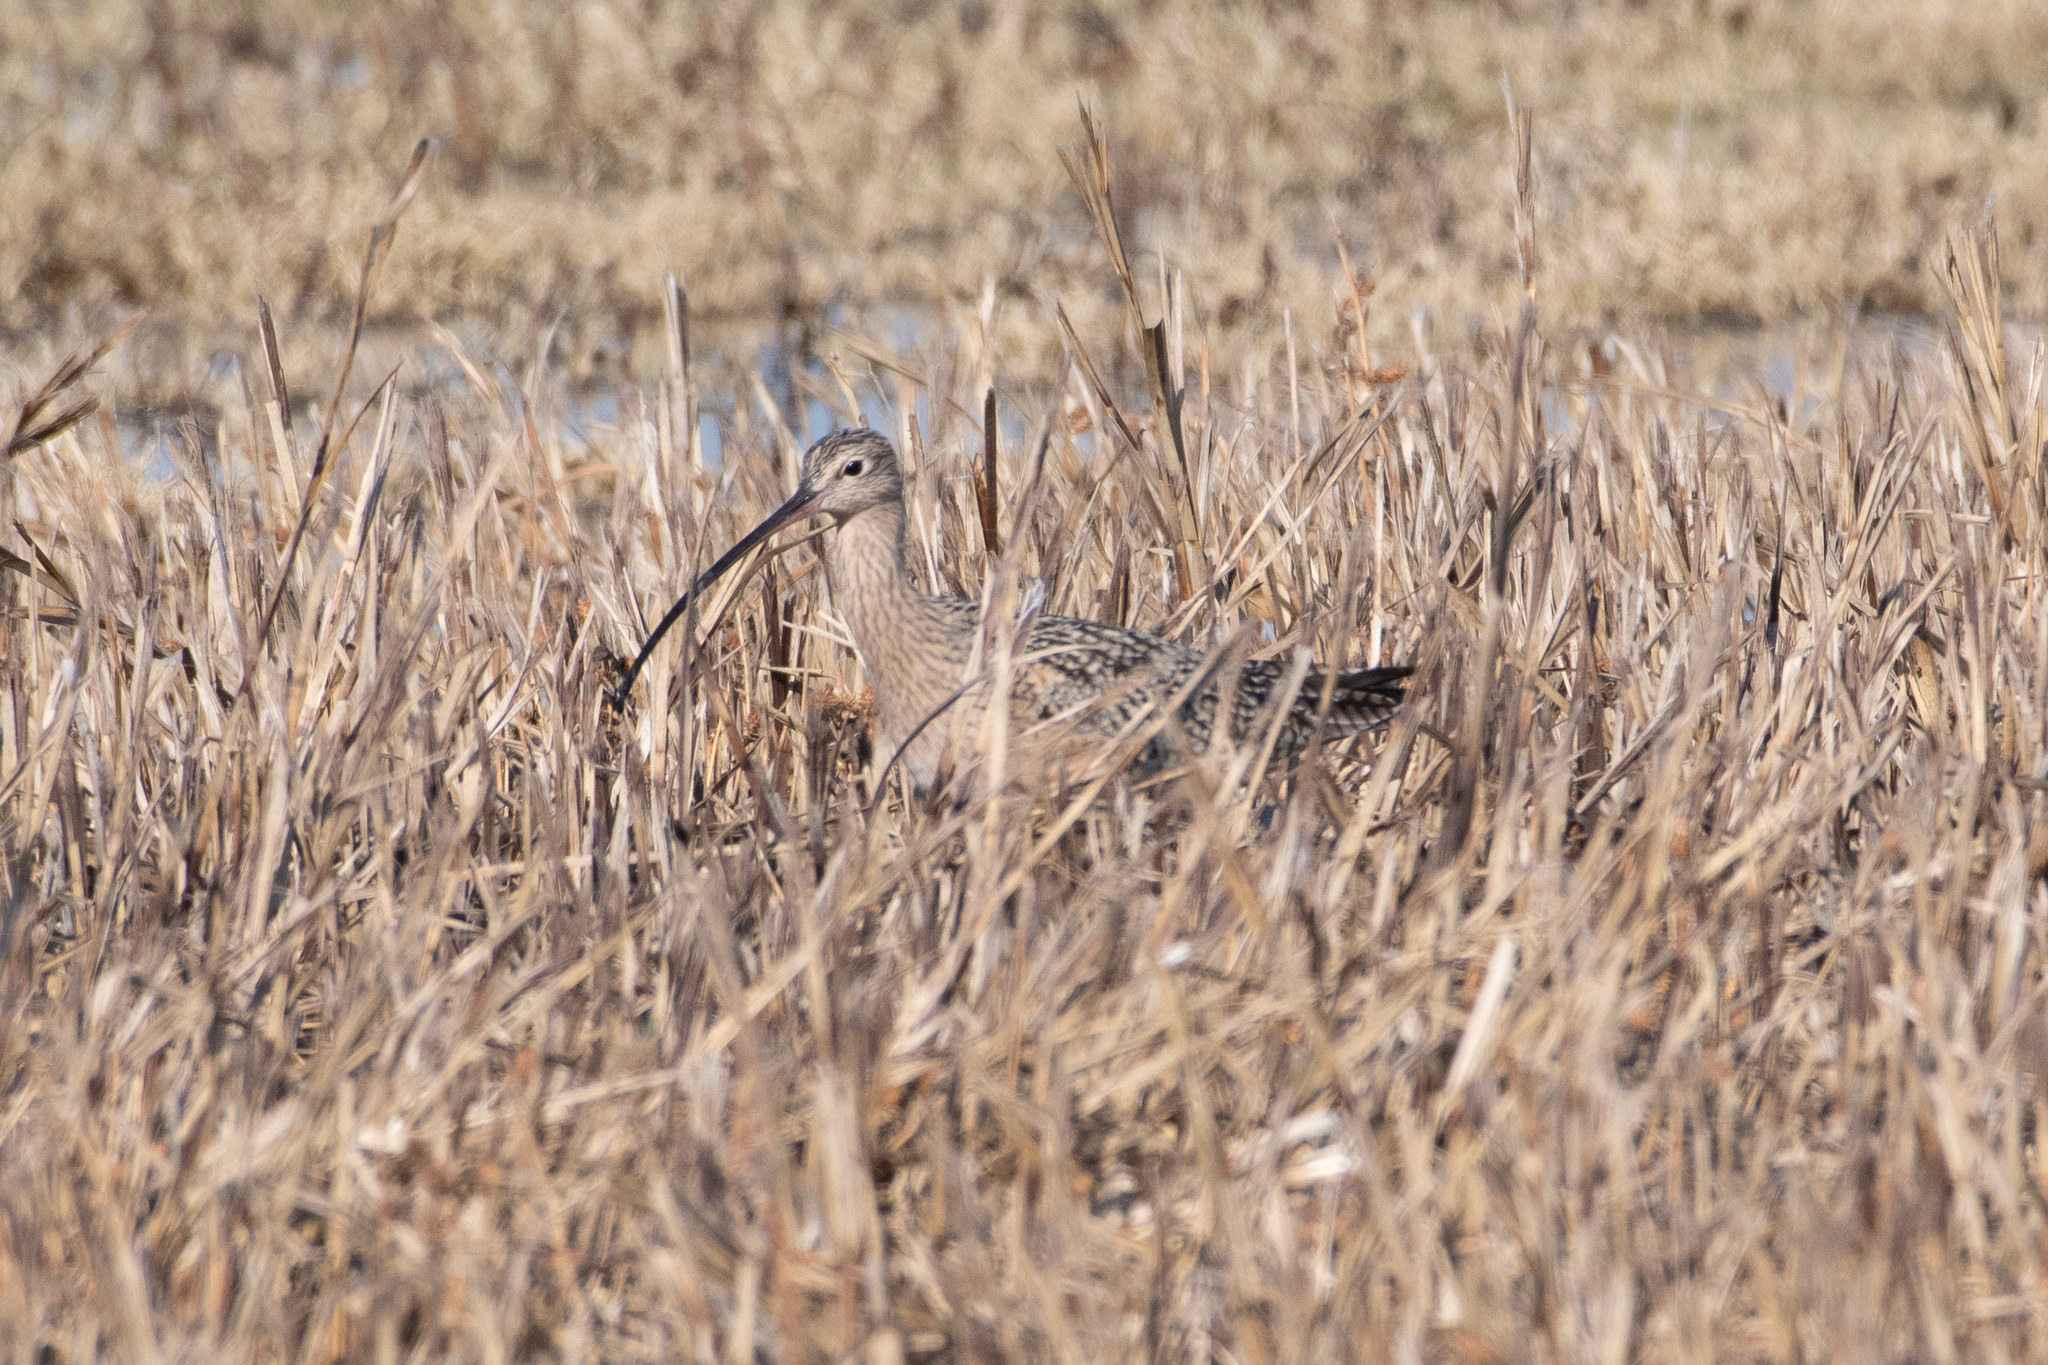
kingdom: Animalia
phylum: Chordata
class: Aves
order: Charadriiformes
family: Scolopacidae
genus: Numenius
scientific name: Numenius americanus
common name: Long-billed curlew
